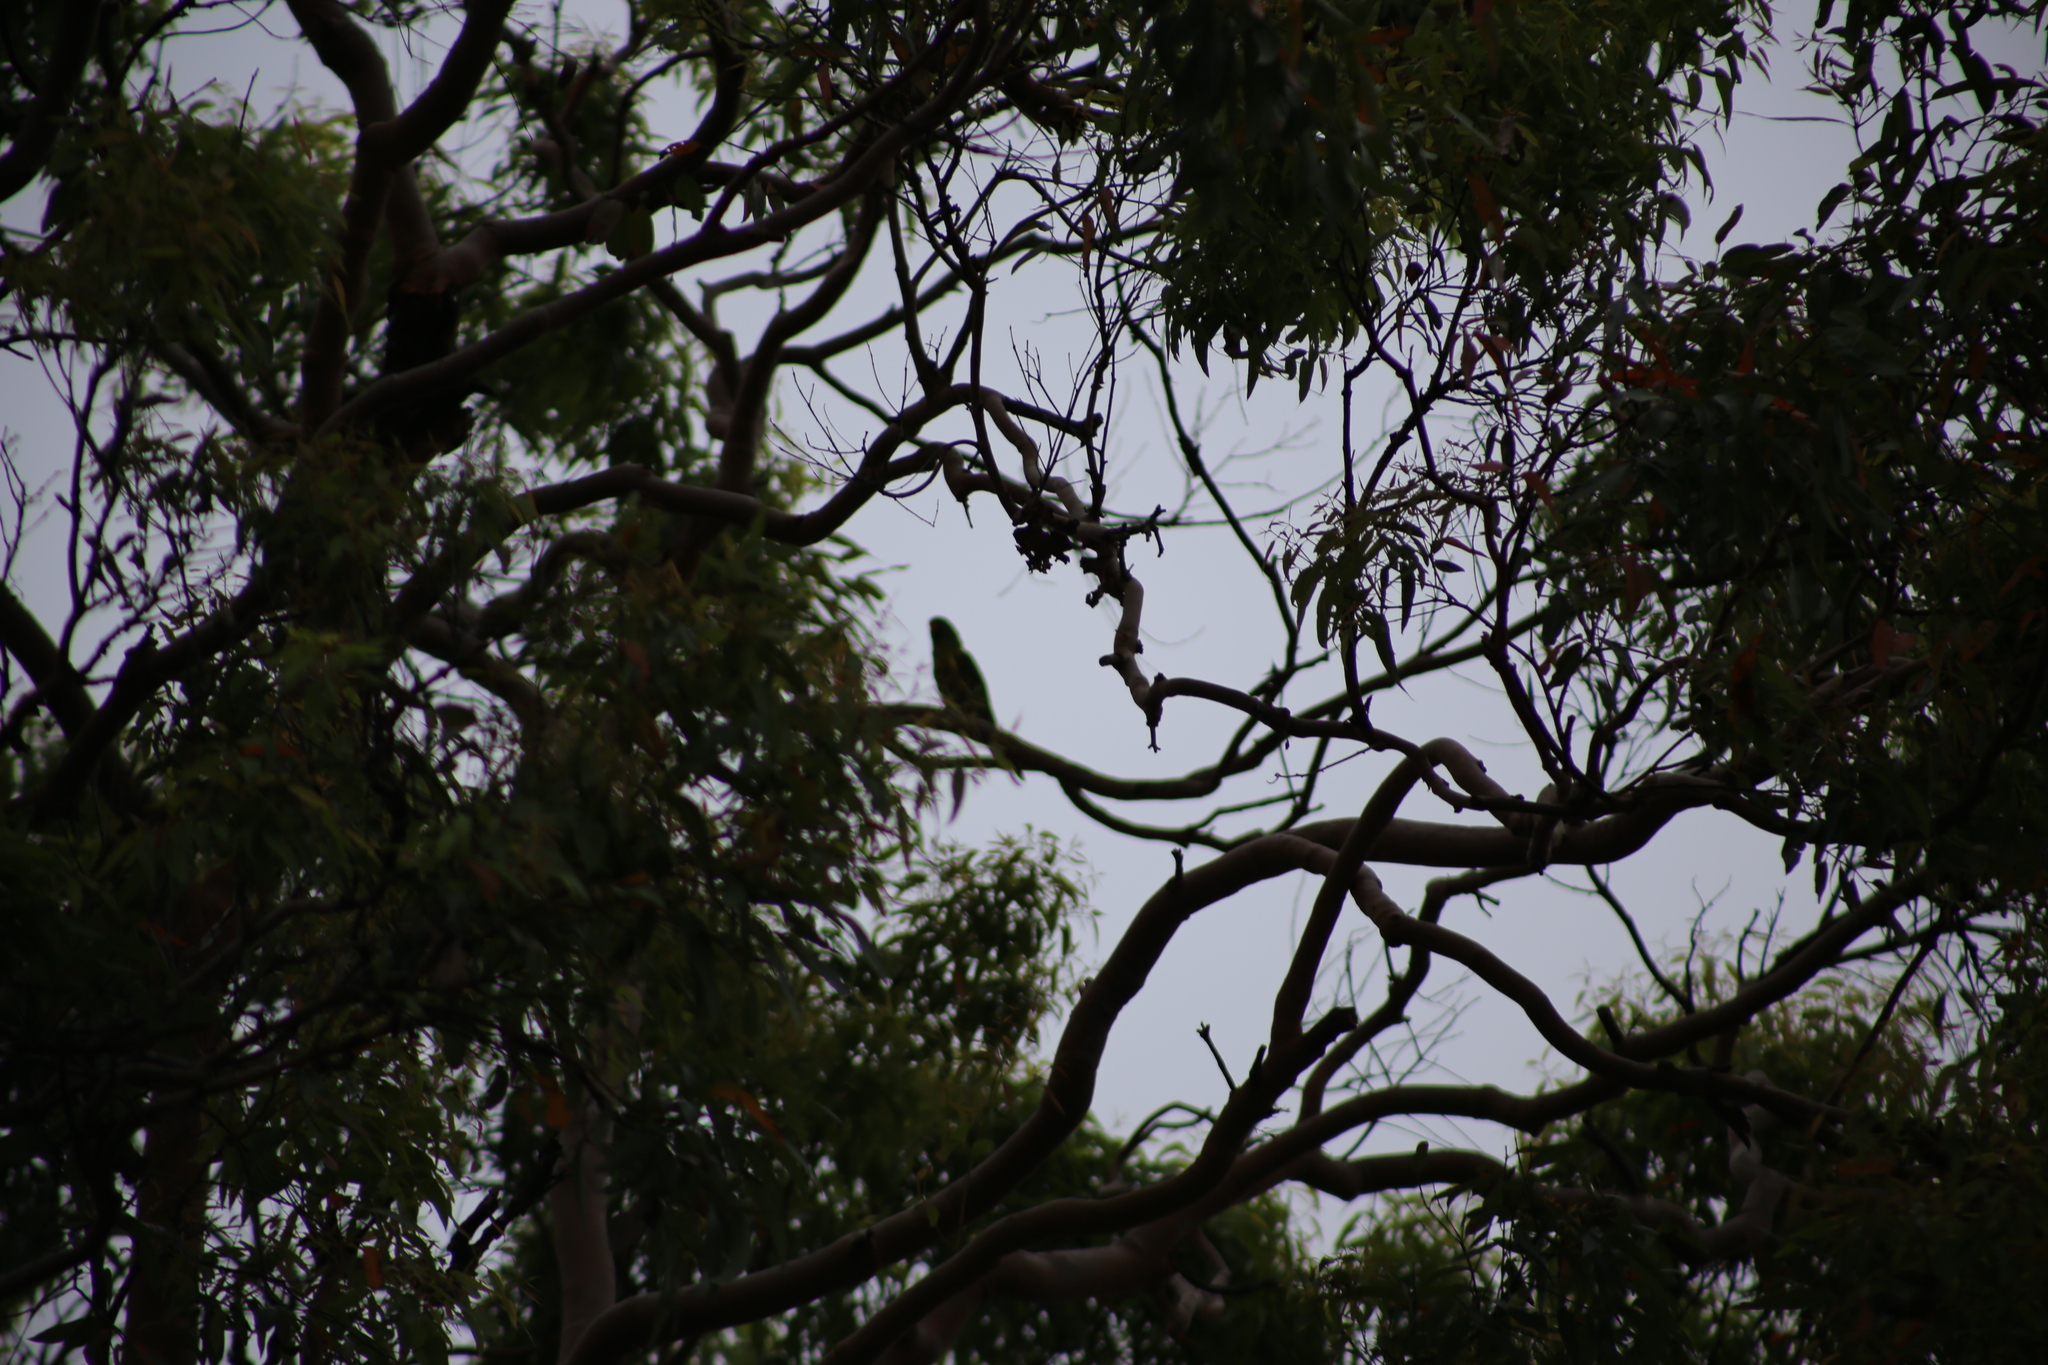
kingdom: Animalia
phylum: Chordata
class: Aves
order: Psittaciformes
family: Psittacidae
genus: Trichoglossus
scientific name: Trichoglossus chlorolepidotus
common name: Scaly-breasted lorikeet
